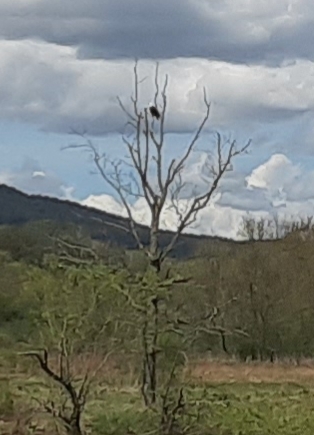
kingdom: Animalia
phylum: Chordata
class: Aves
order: Accipitriformes
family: Accipitridae
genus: Haliaeetus
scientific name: Haliaeetus leucocephalus
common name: Bald eagle
